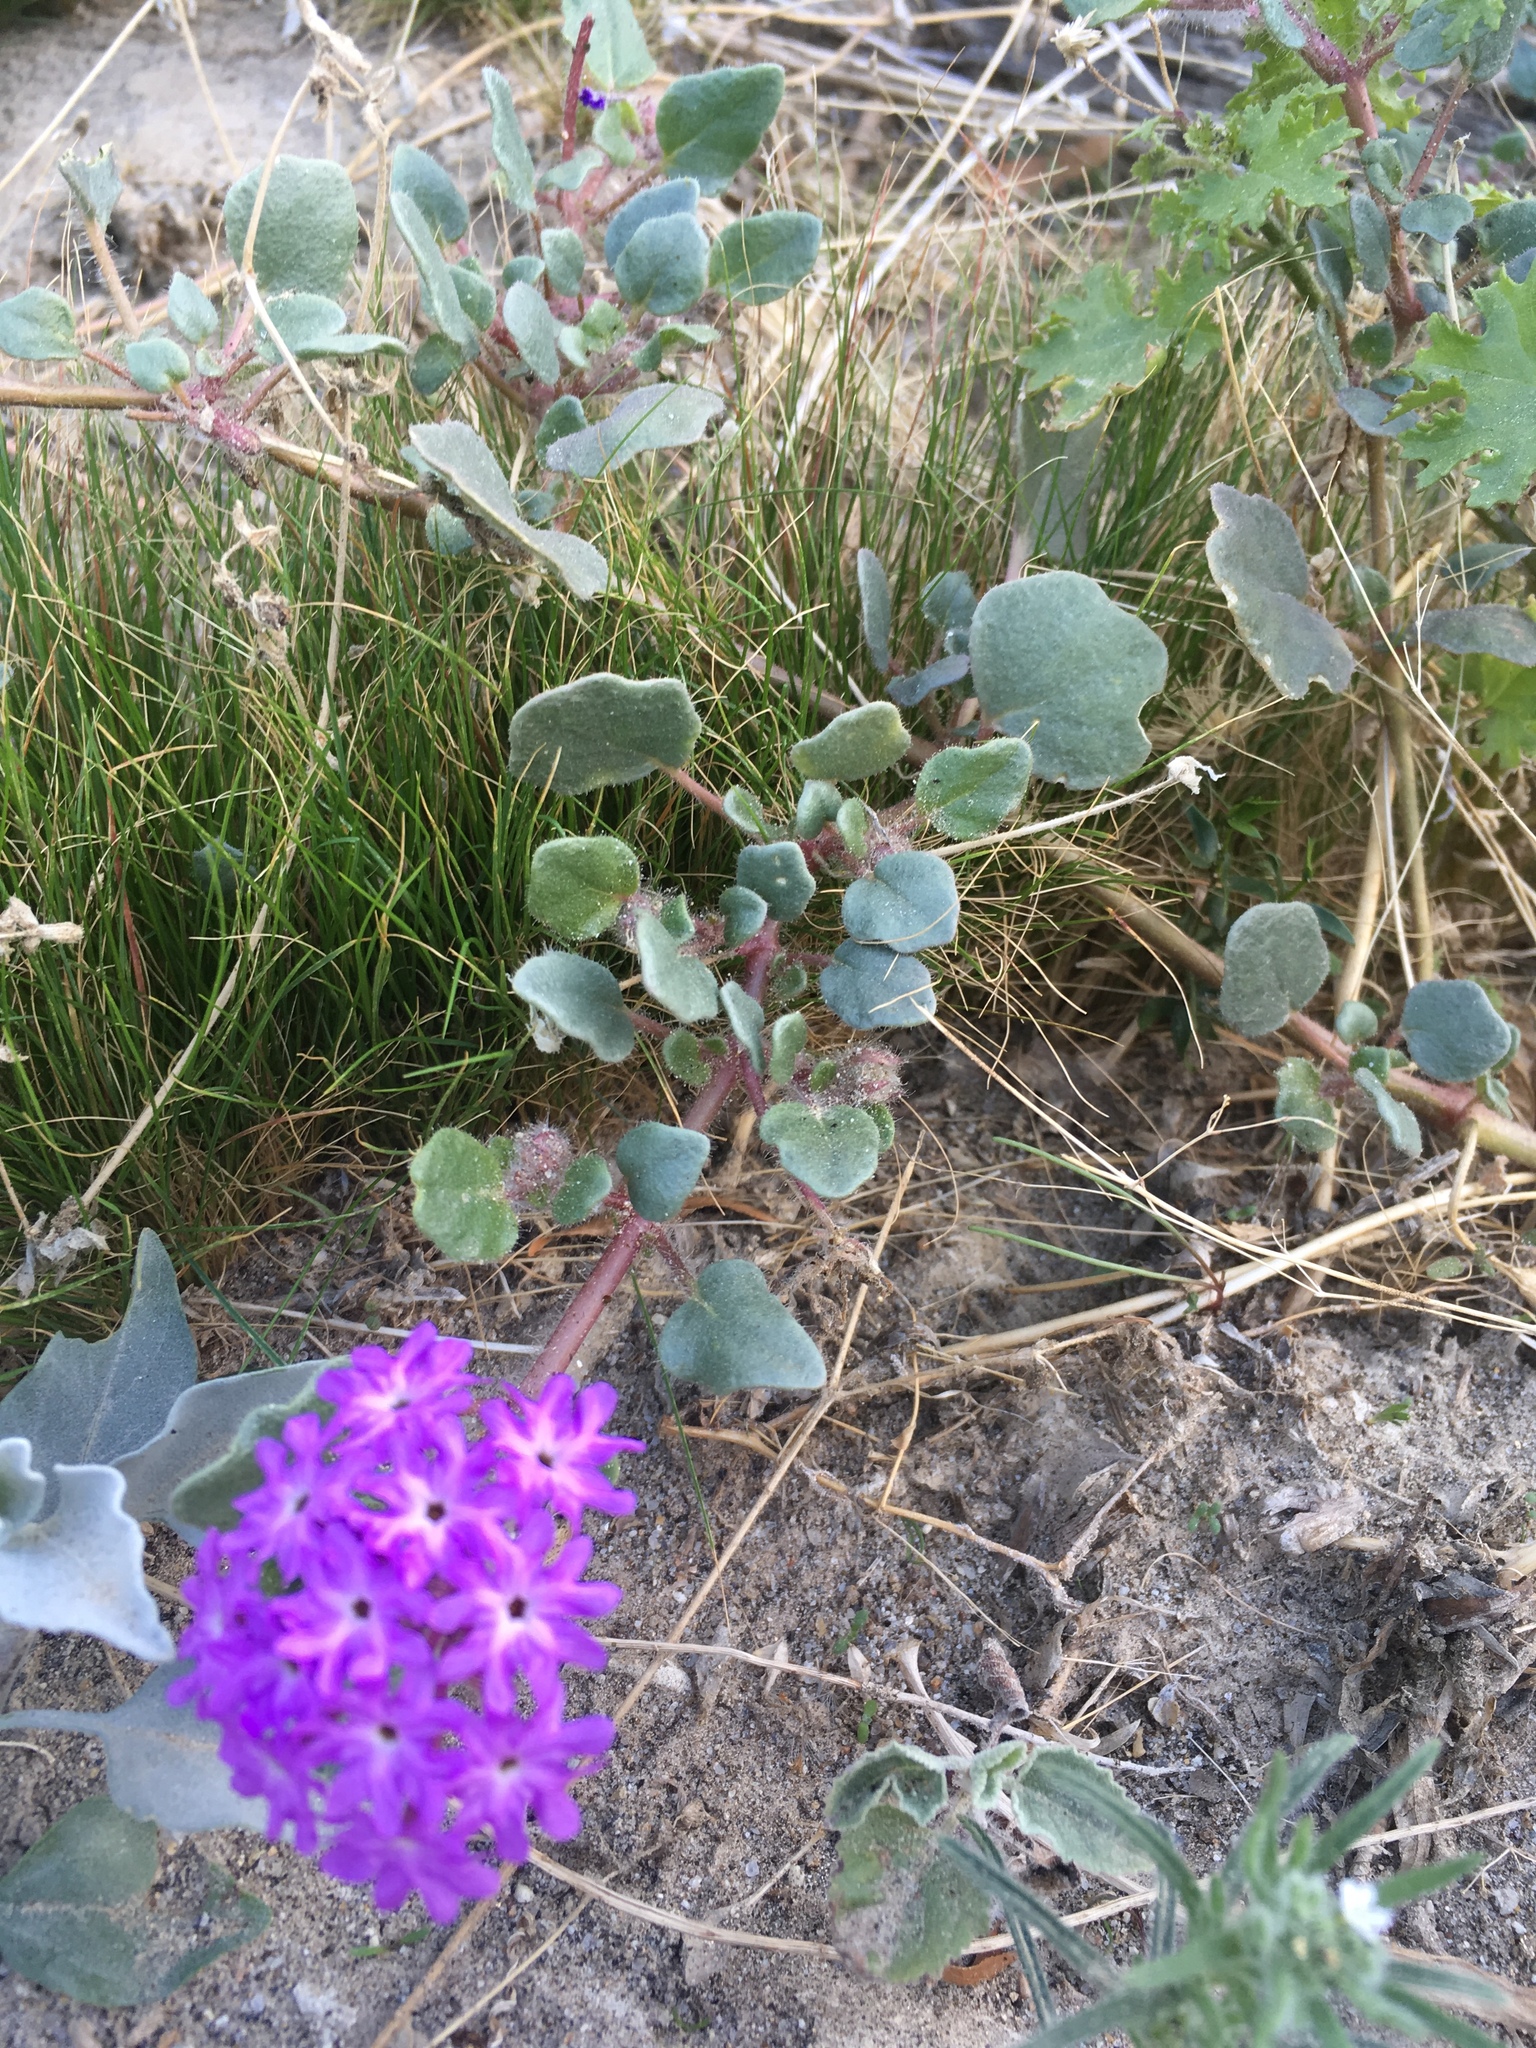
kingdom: Plantae
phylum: Tracheophyta
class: Magnoliopsida
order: Caryophyllales
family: Nyctaginaceae
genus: Abronia
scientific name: Abronia villosa
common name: Desert sand-verbena
